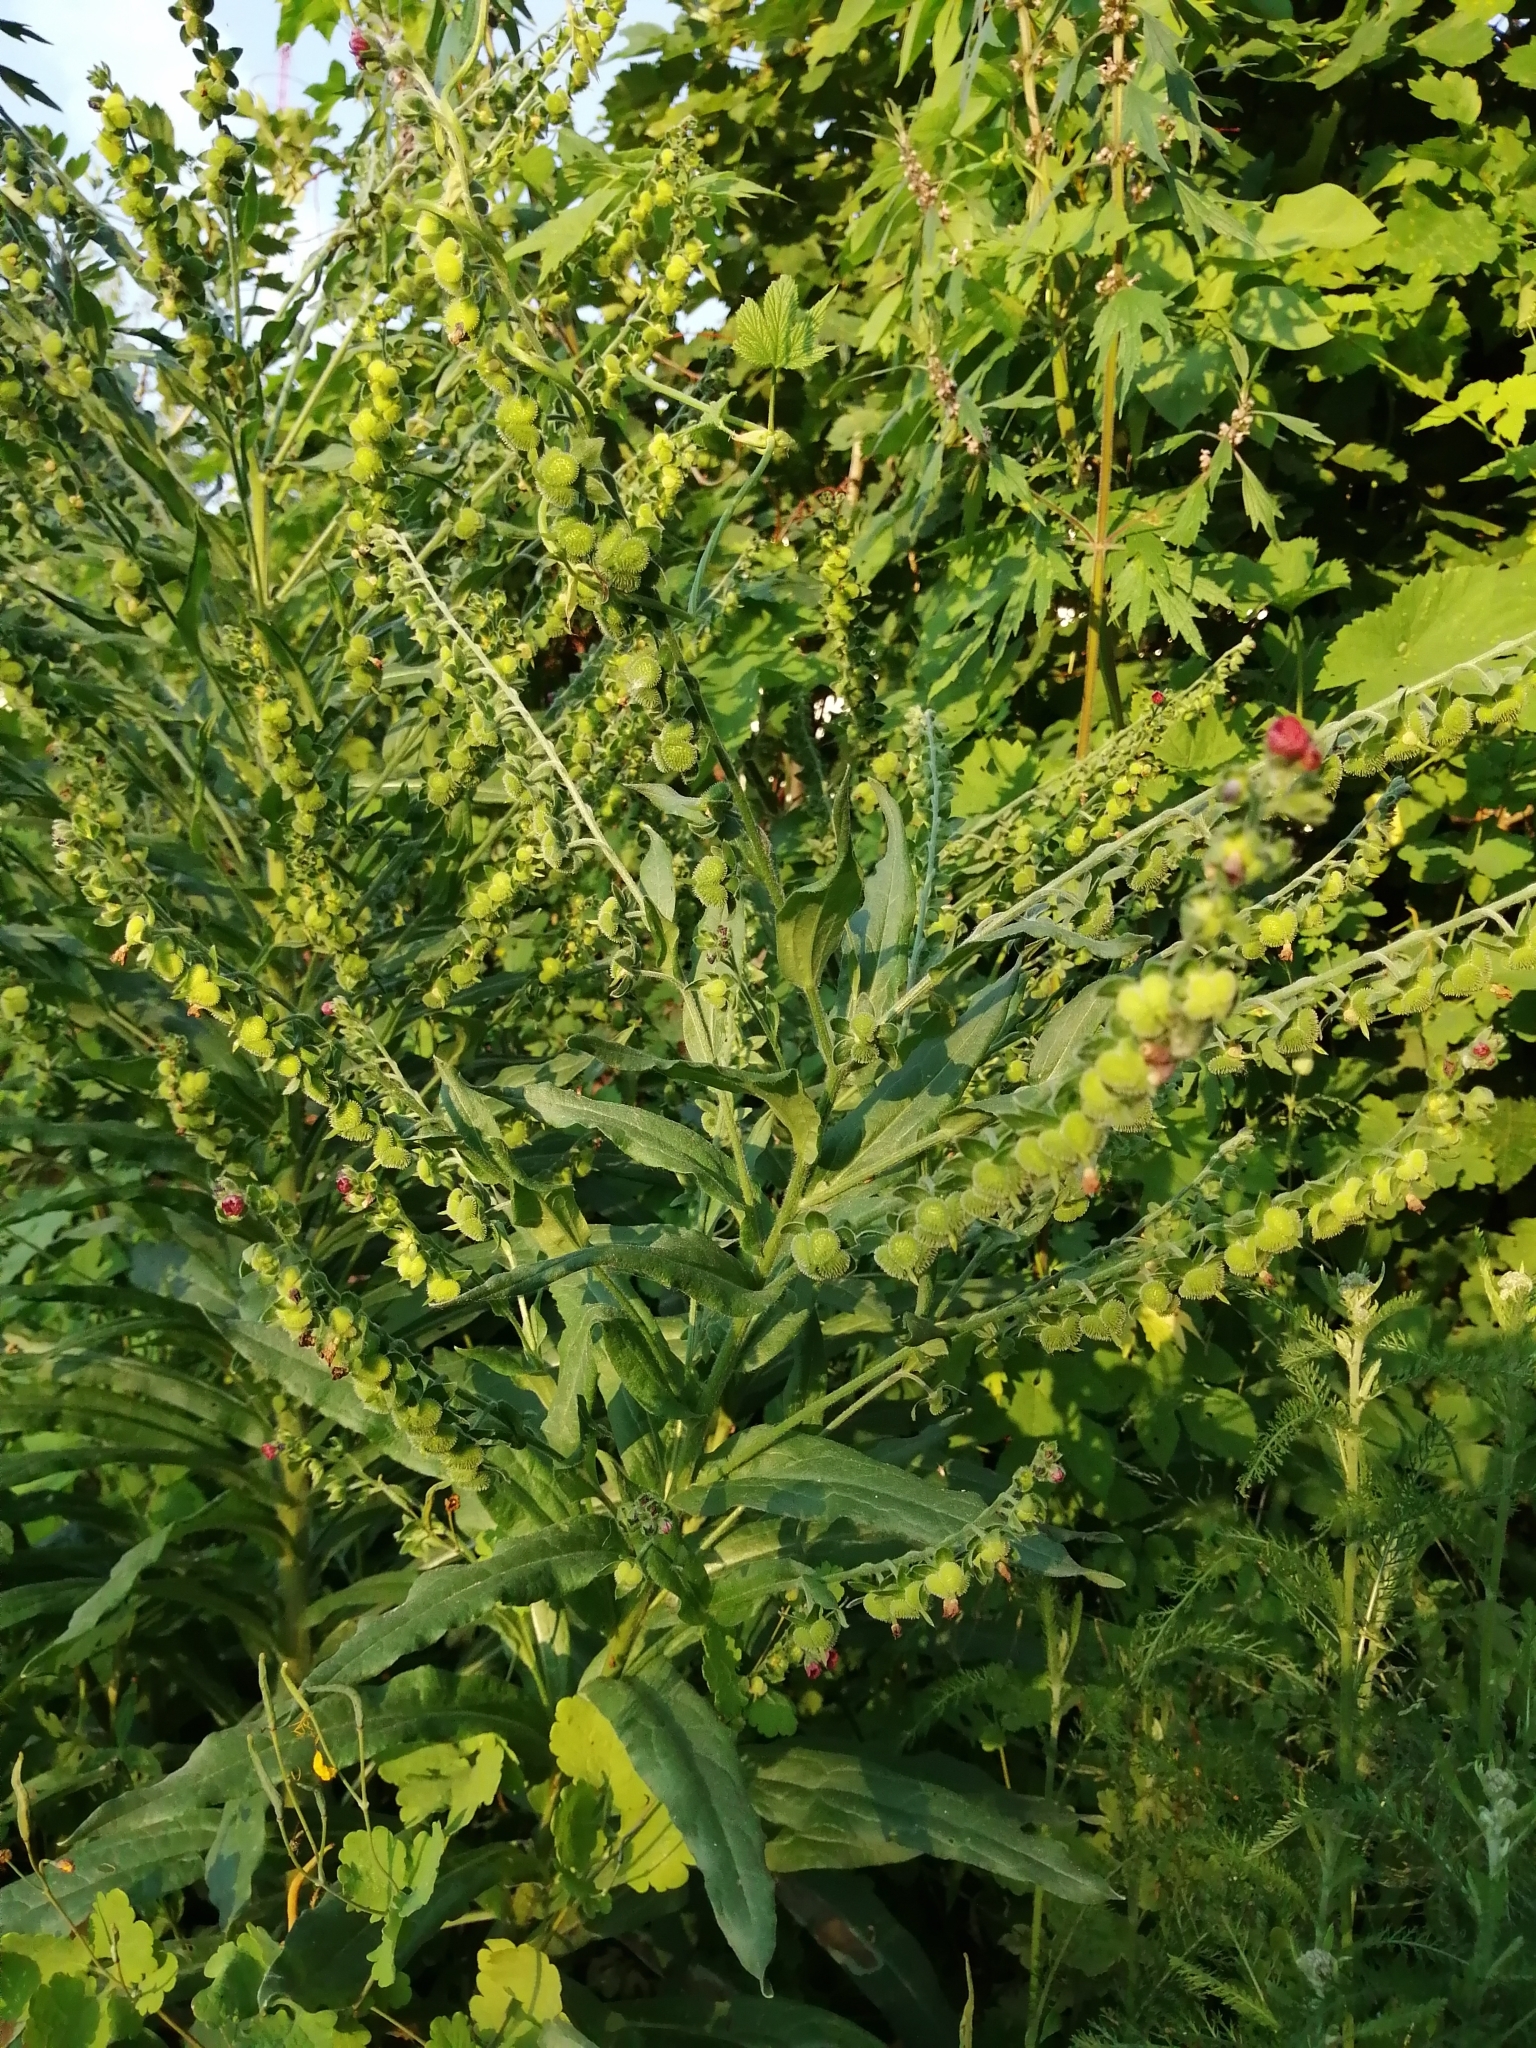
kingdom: Plantae
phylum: Tracheophyta
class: Magnoliopsida
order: Boraginales
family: Boraginaceae
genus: Cynoglossum
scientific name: Cynoglossum officinale
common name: Hound's-tongue
